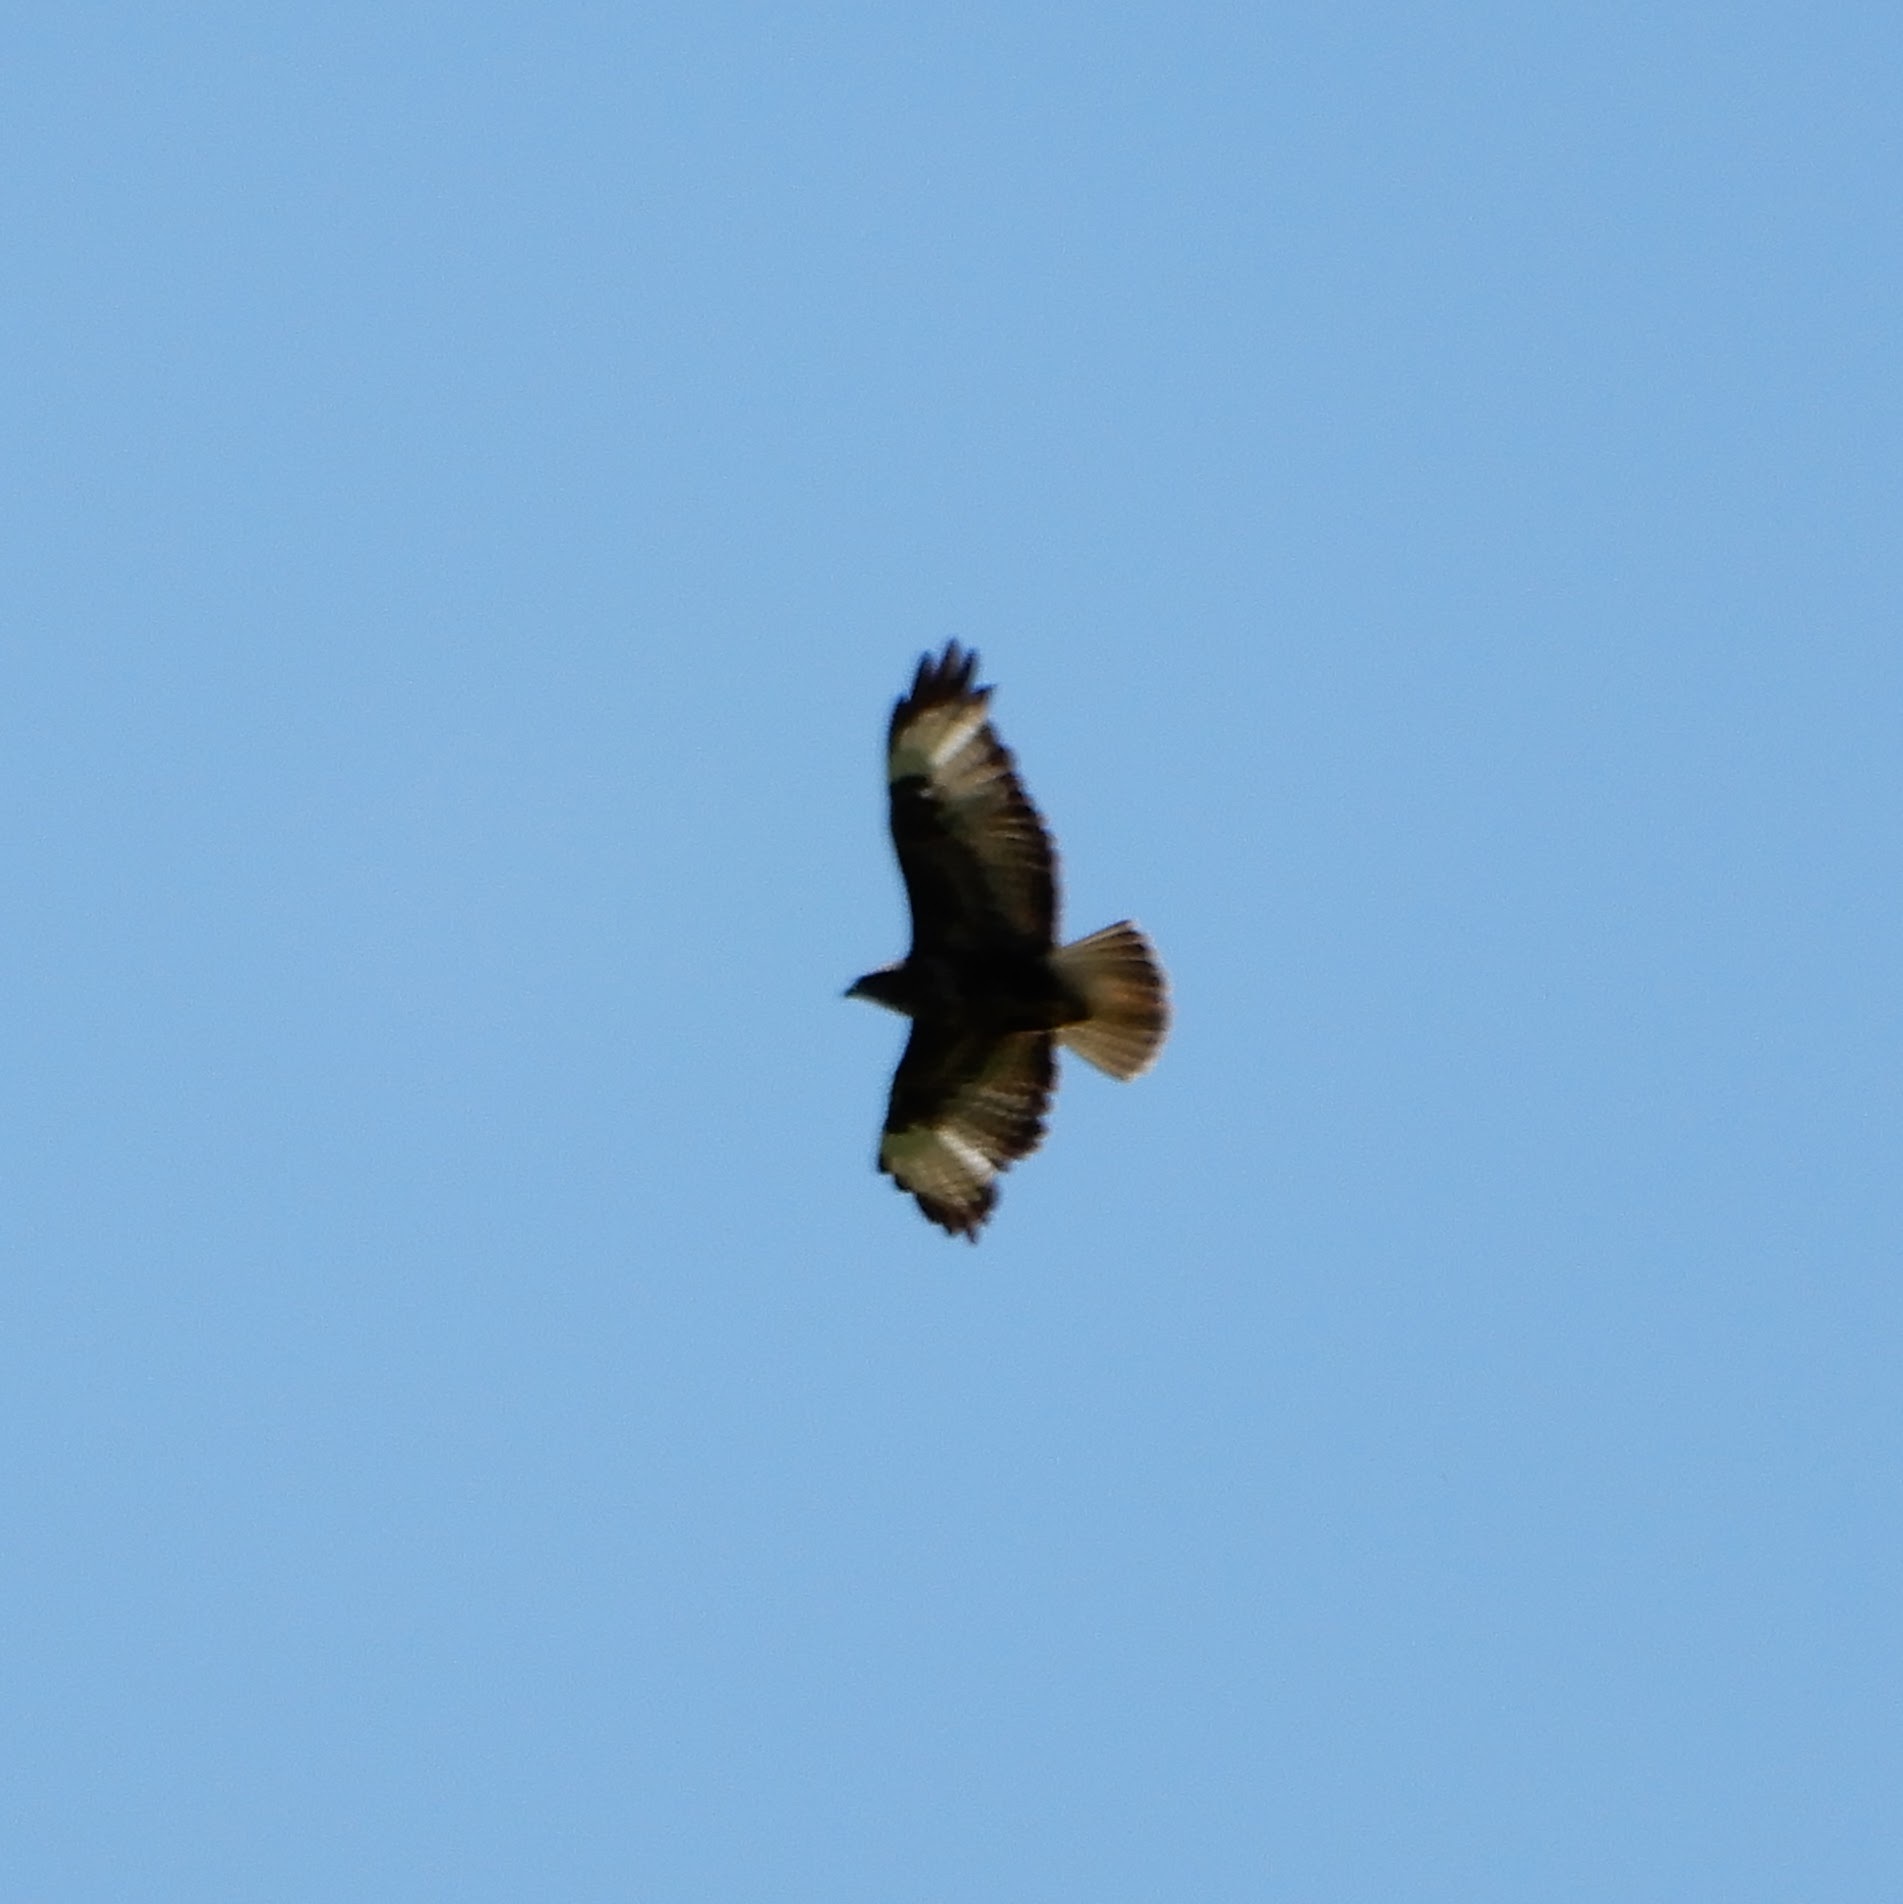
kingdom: Animalia
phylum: Chordata
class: Aves
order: Accipitriformes
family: Accipitridae
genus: Buteo
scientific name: Buteo buteo
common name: Common buzzard
